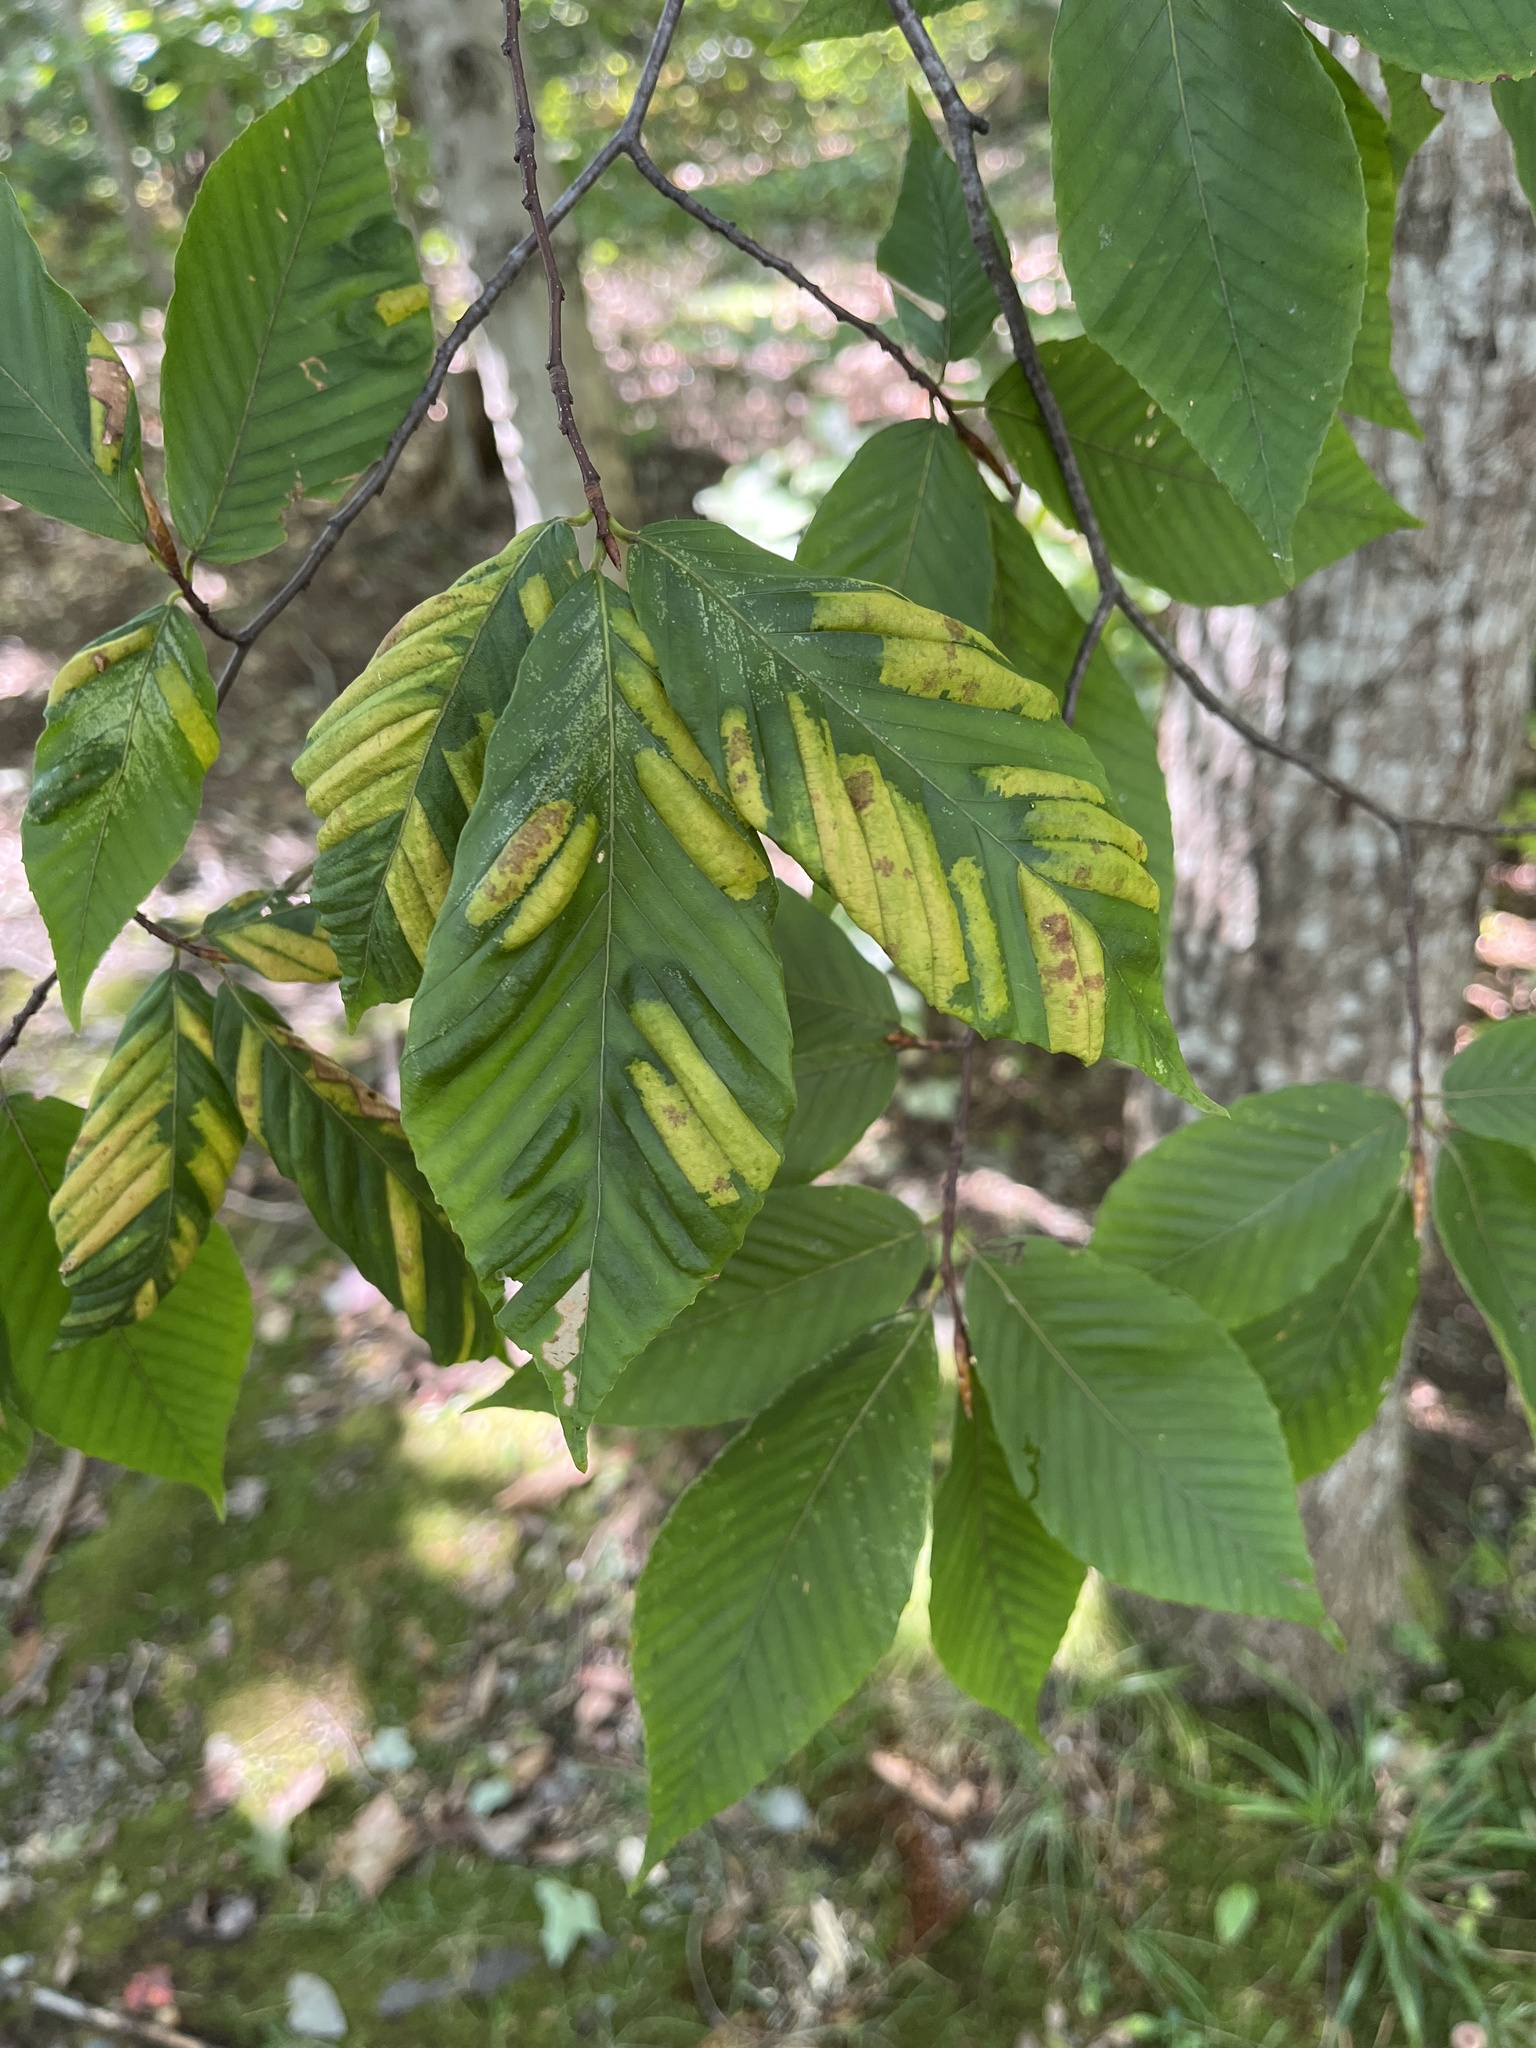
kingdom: Animalia
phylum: Nematoda
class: Chromadorea
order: Rhabditida
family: Anguinidae
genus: Litylenchus
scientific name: Litylenchus crenatae
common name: Beech leaf disease
